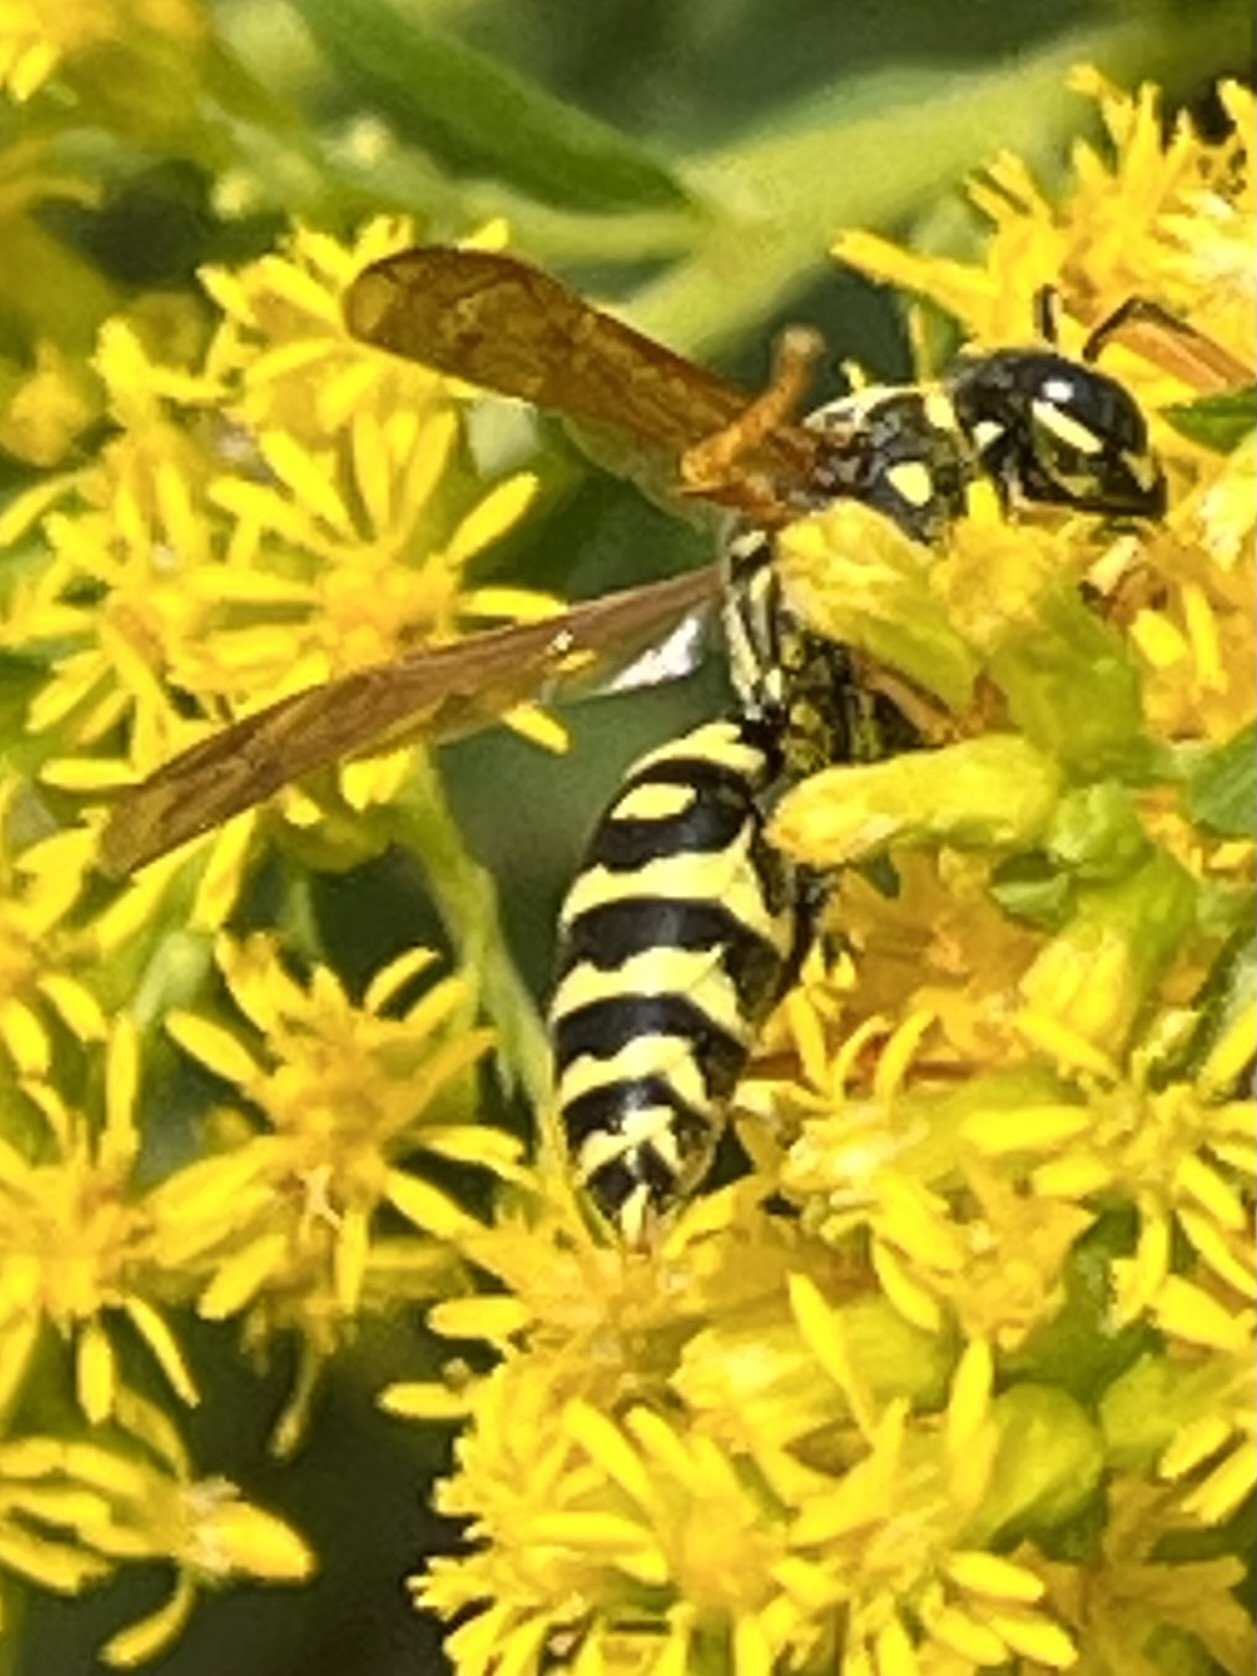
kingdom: Animalia
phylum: Arthropoda
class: Insecta
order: Hymenoptera
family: Eumenidae
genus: Polistes
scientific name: Polistes dominula
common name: Paper wasp
